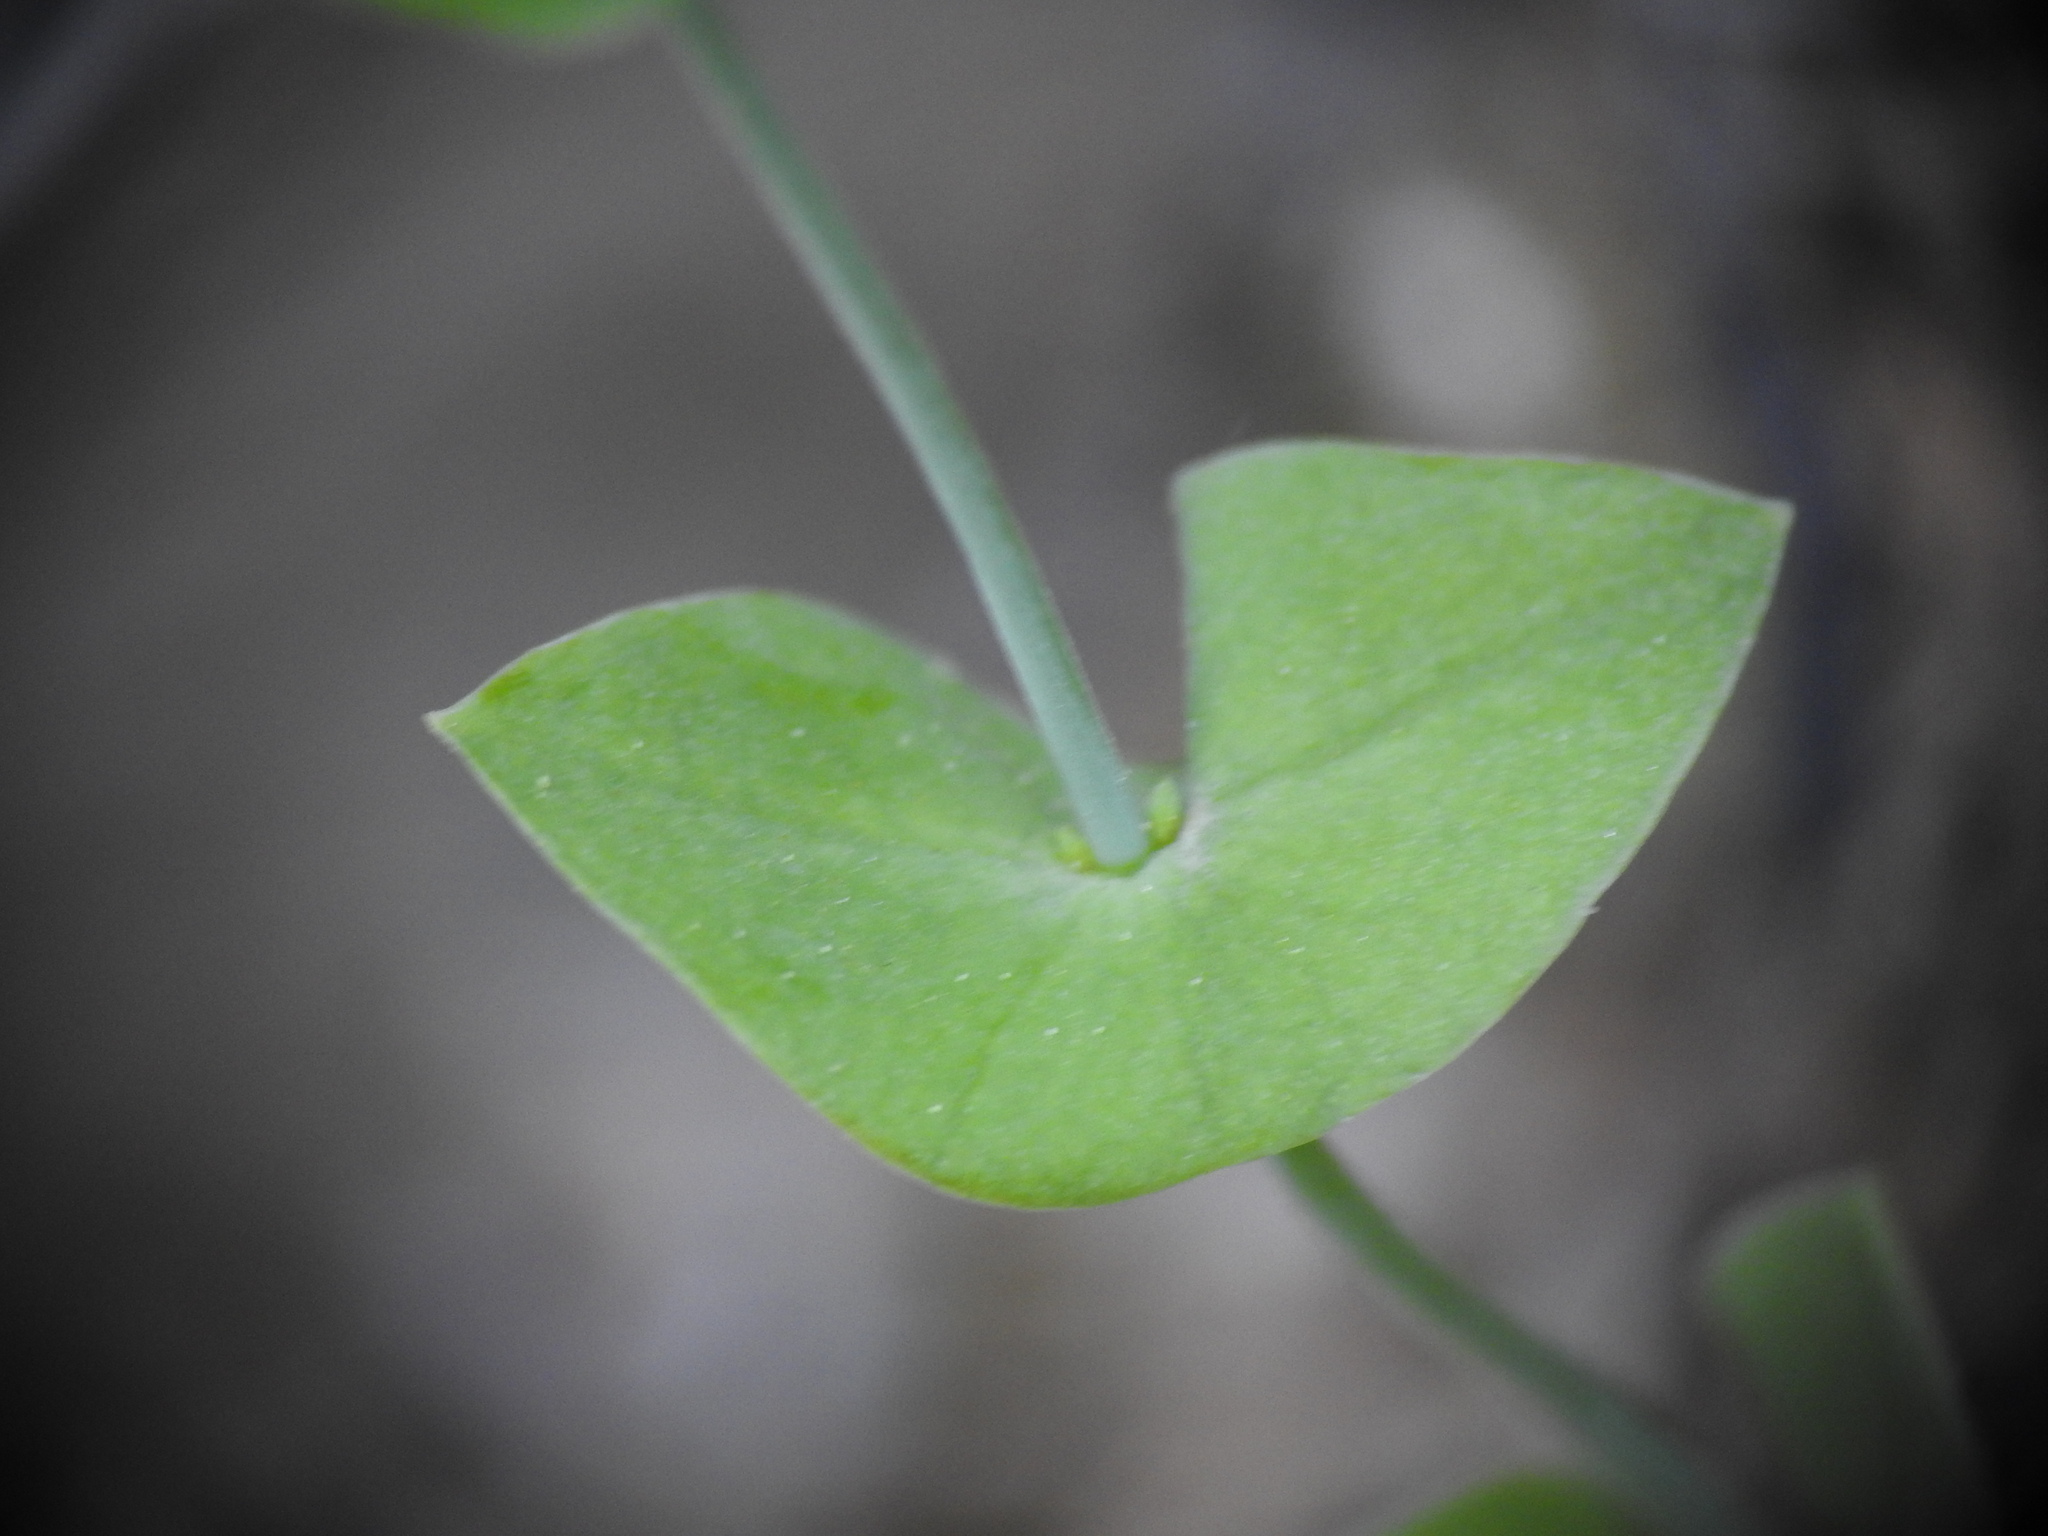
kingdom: Plantae
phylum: Tracheophyta
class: Magnoliopsida
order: Gentianales
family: Gentianaceae
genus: Blackstonia
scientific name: Blackstonia perfoliata
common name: Yellow-wort
